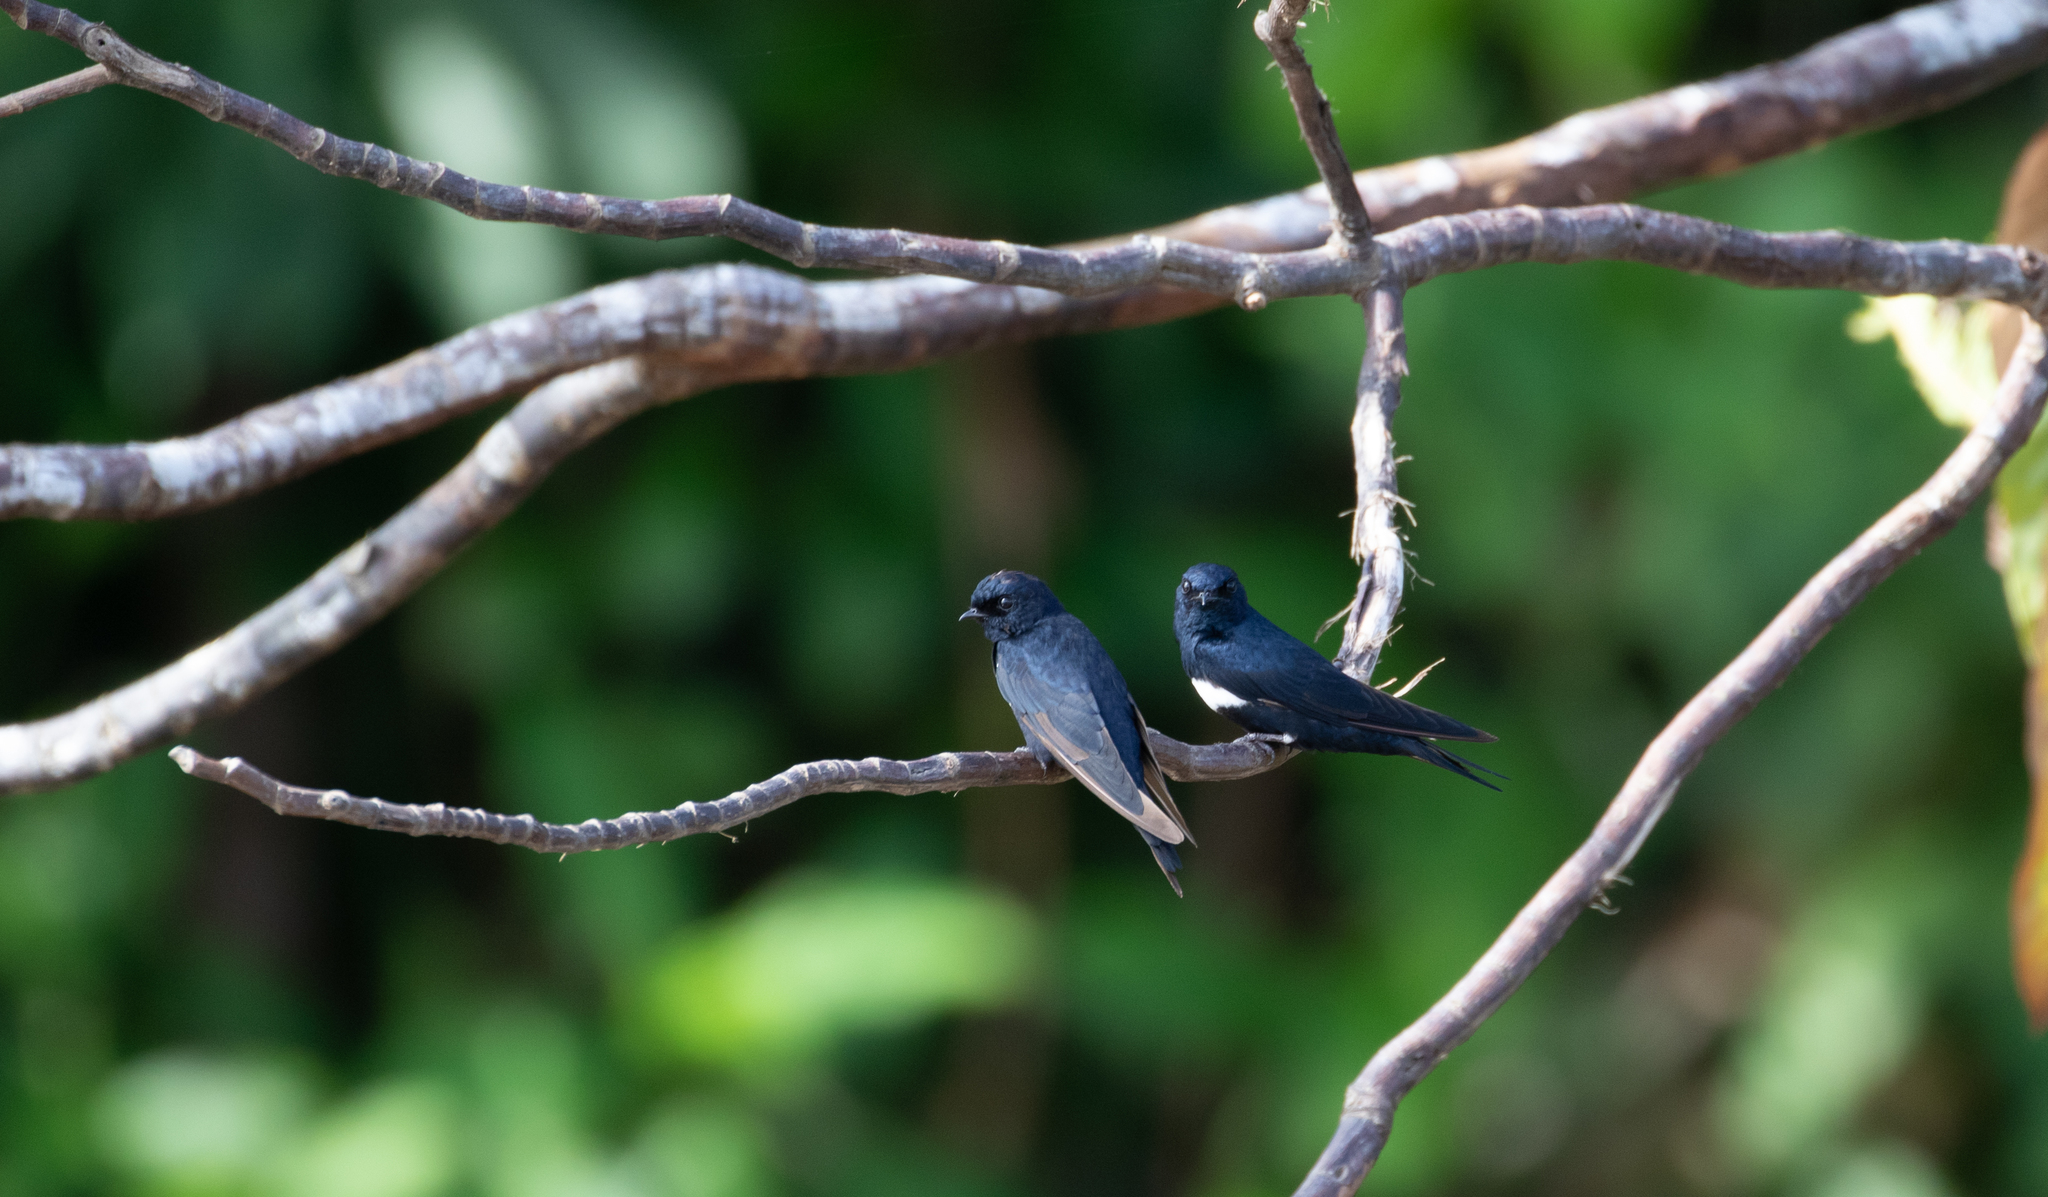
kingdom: Animalia
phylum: Chordata
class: Aves
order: Passeriformes
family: Hirundinidae
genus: Atticora
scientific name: Atticora fasciata
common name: White-banded swallow
